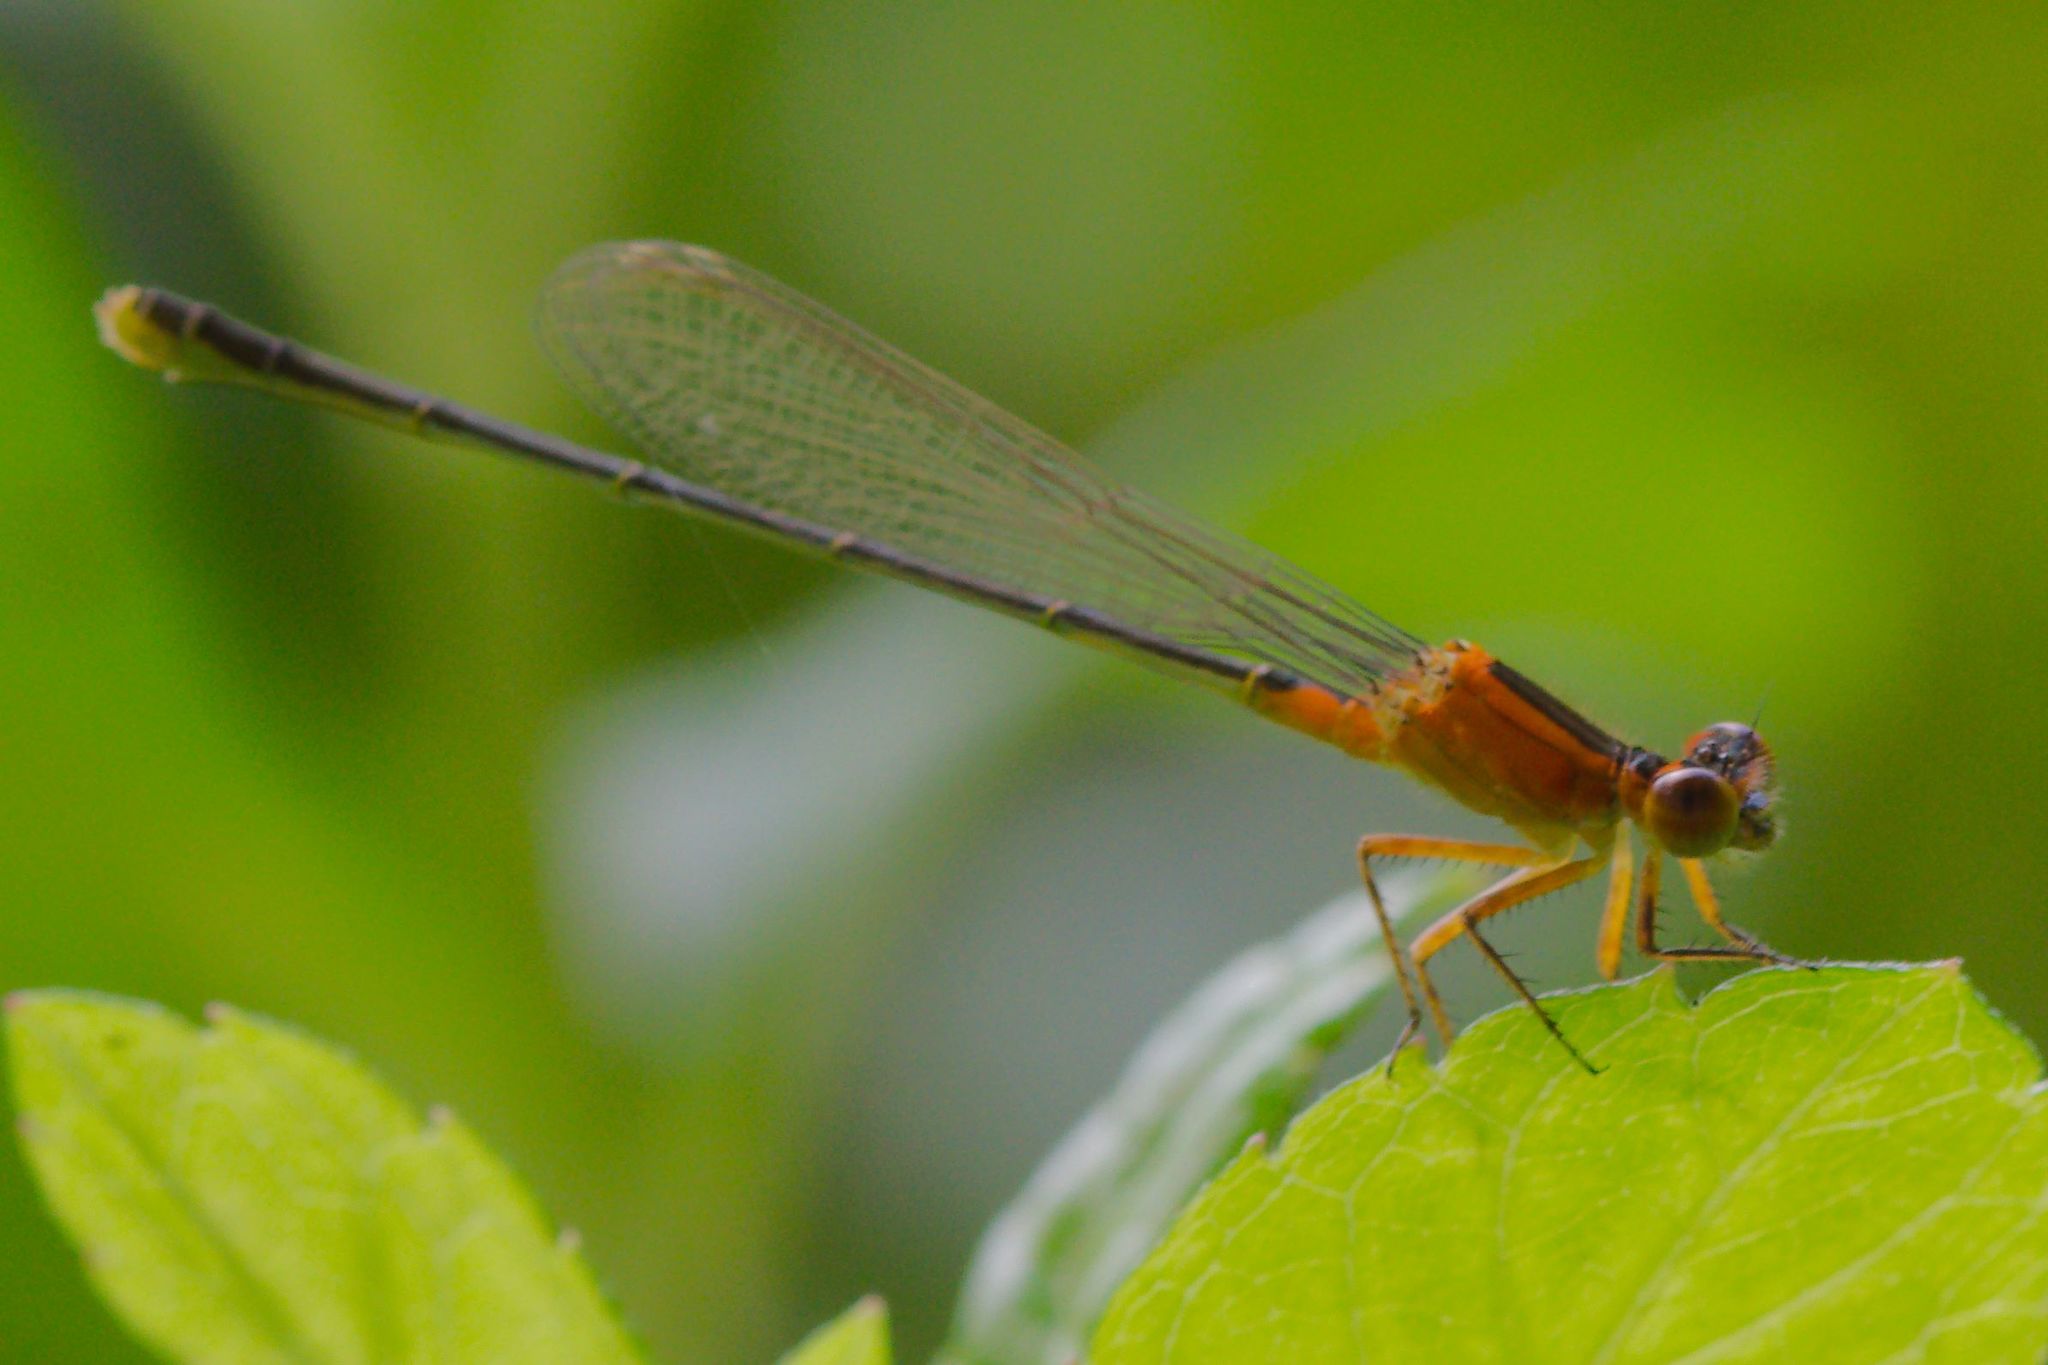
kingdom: Animalia
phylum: Arthropoda
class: Insecta
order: Odonata
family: Coenagrionidae
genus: Ischnura
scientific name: Ischnura ramburii
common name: Rambur's forktail
